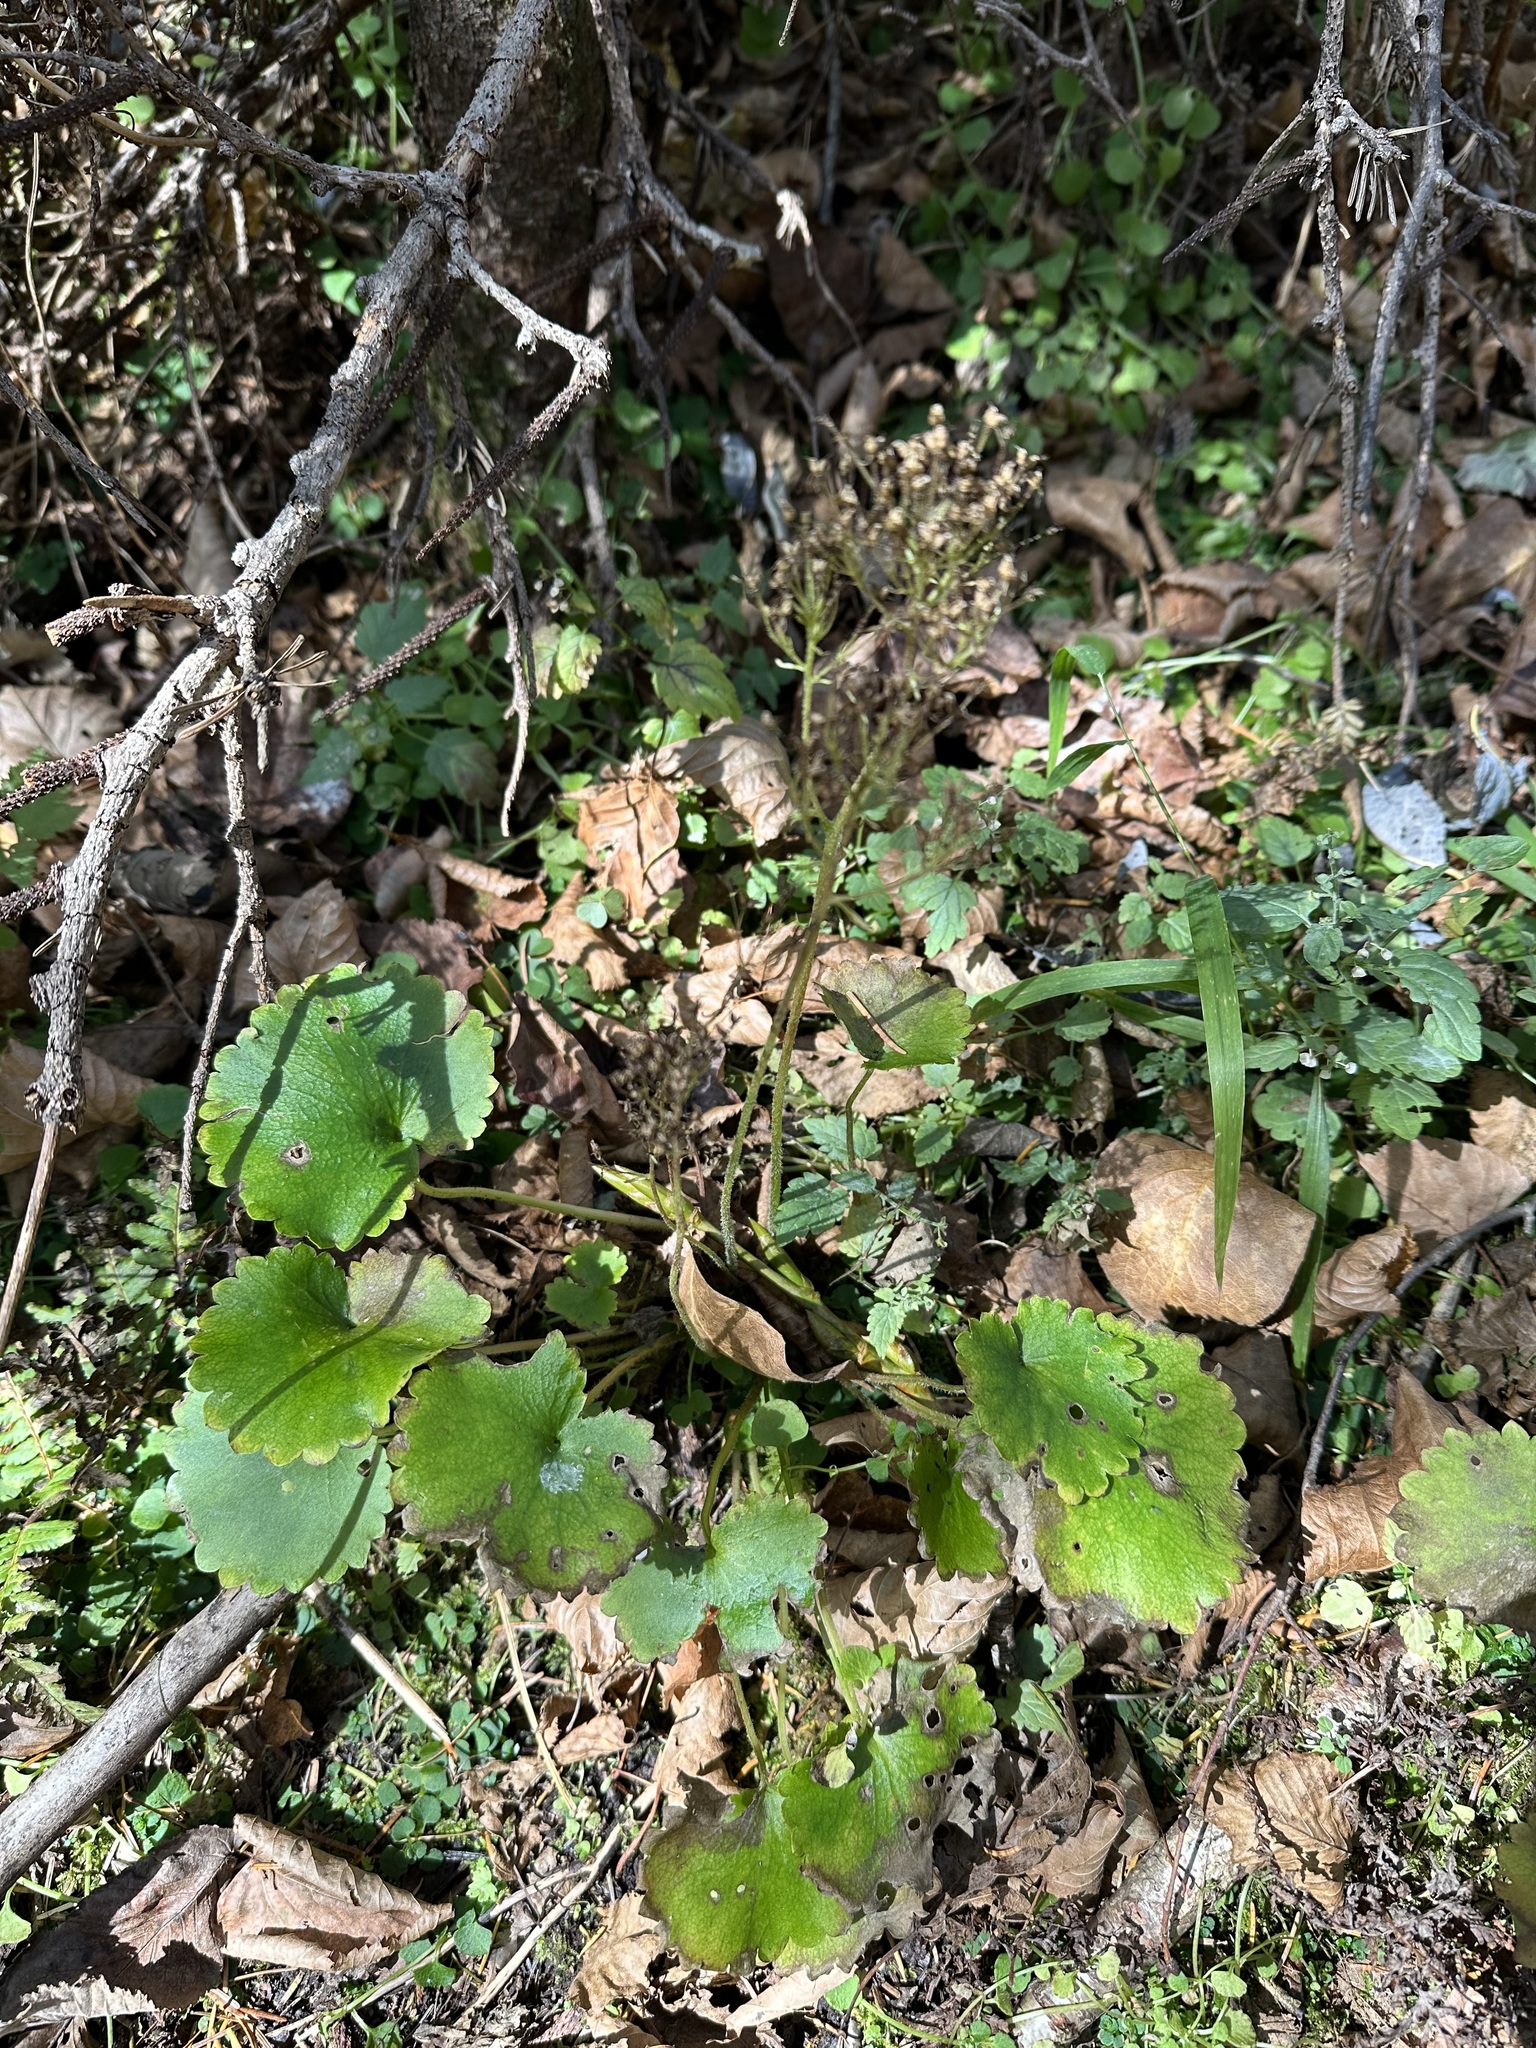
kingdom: Plantae
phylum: Tracheophyta
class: Magnoliopsida
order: Saxifragales
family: Saxifragaceae
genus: Micranthes
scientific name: Micranthes manchuriensis
